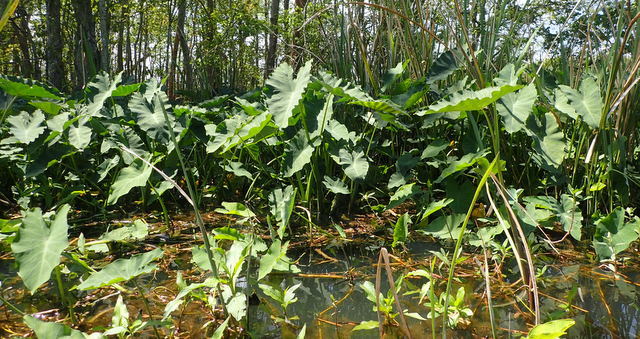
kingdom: Plantae
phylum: Tracheophyta
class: Liliopsida
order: Alismatales
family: Araceae
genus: Colocasia
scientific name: Colocasia esculenta
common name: Taro
